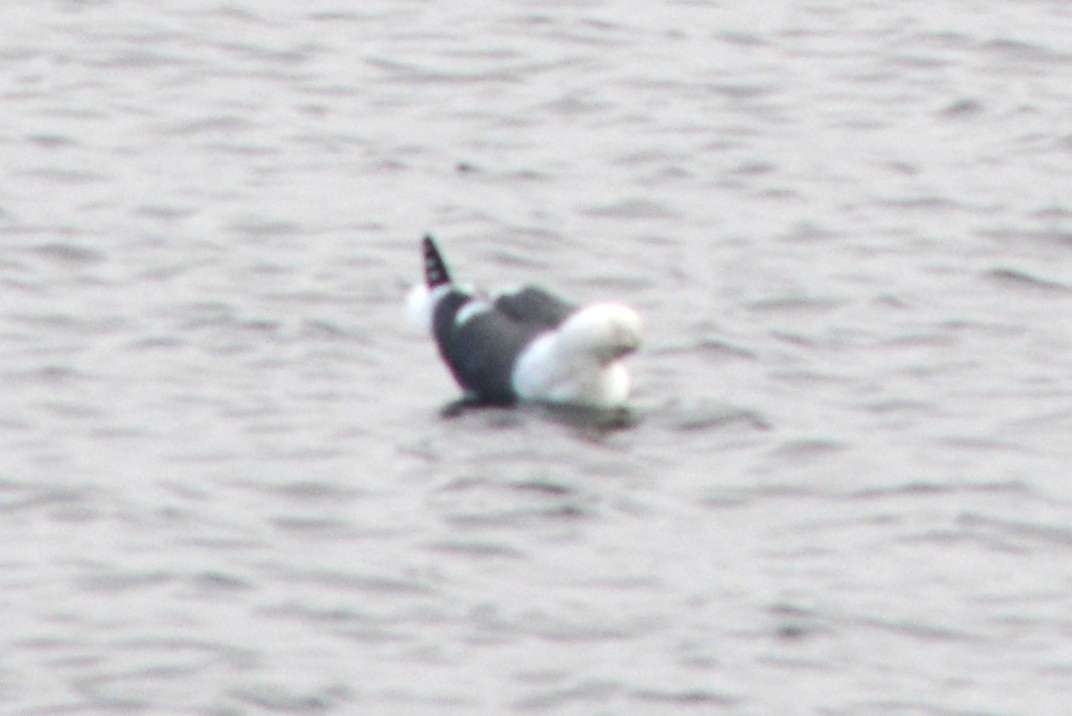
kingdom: Animalia
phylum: Chordata
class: Aves
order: Charadriiformes
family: Laridae
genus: Larus
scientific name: Larus occidentalis
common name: Western gull
